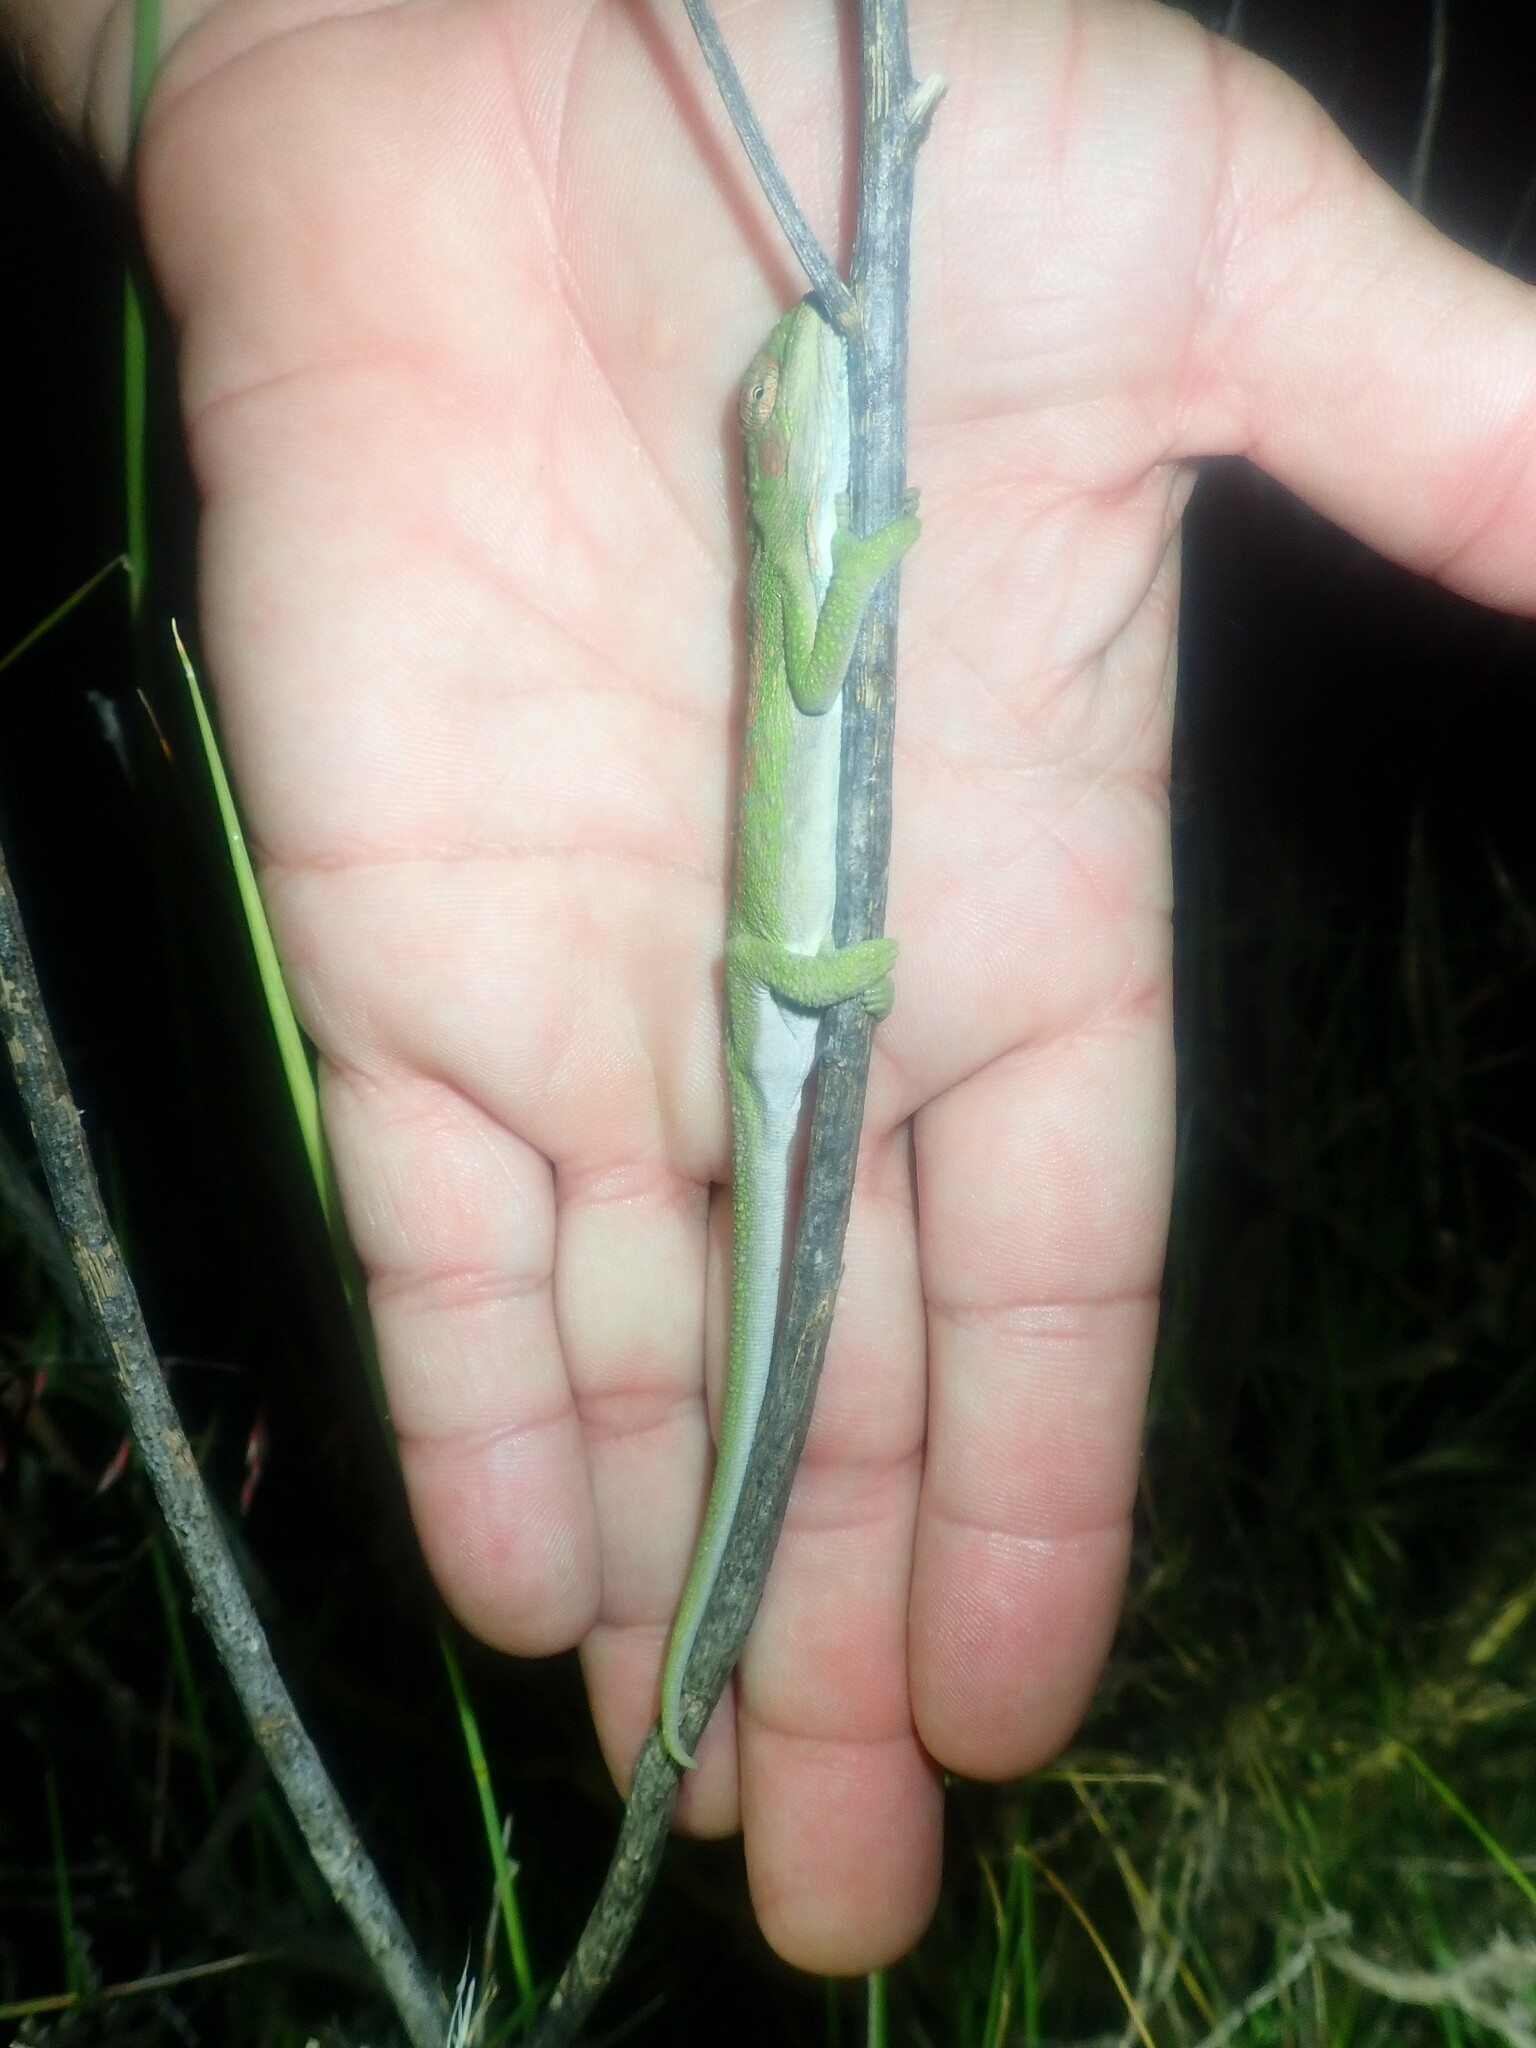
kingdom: Animalia
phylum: Chordata
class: Squamata
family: Chamaeleonidae
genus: Bradypodion
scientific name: Bradypodion pumilum
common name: Cape dwarf chameleon
